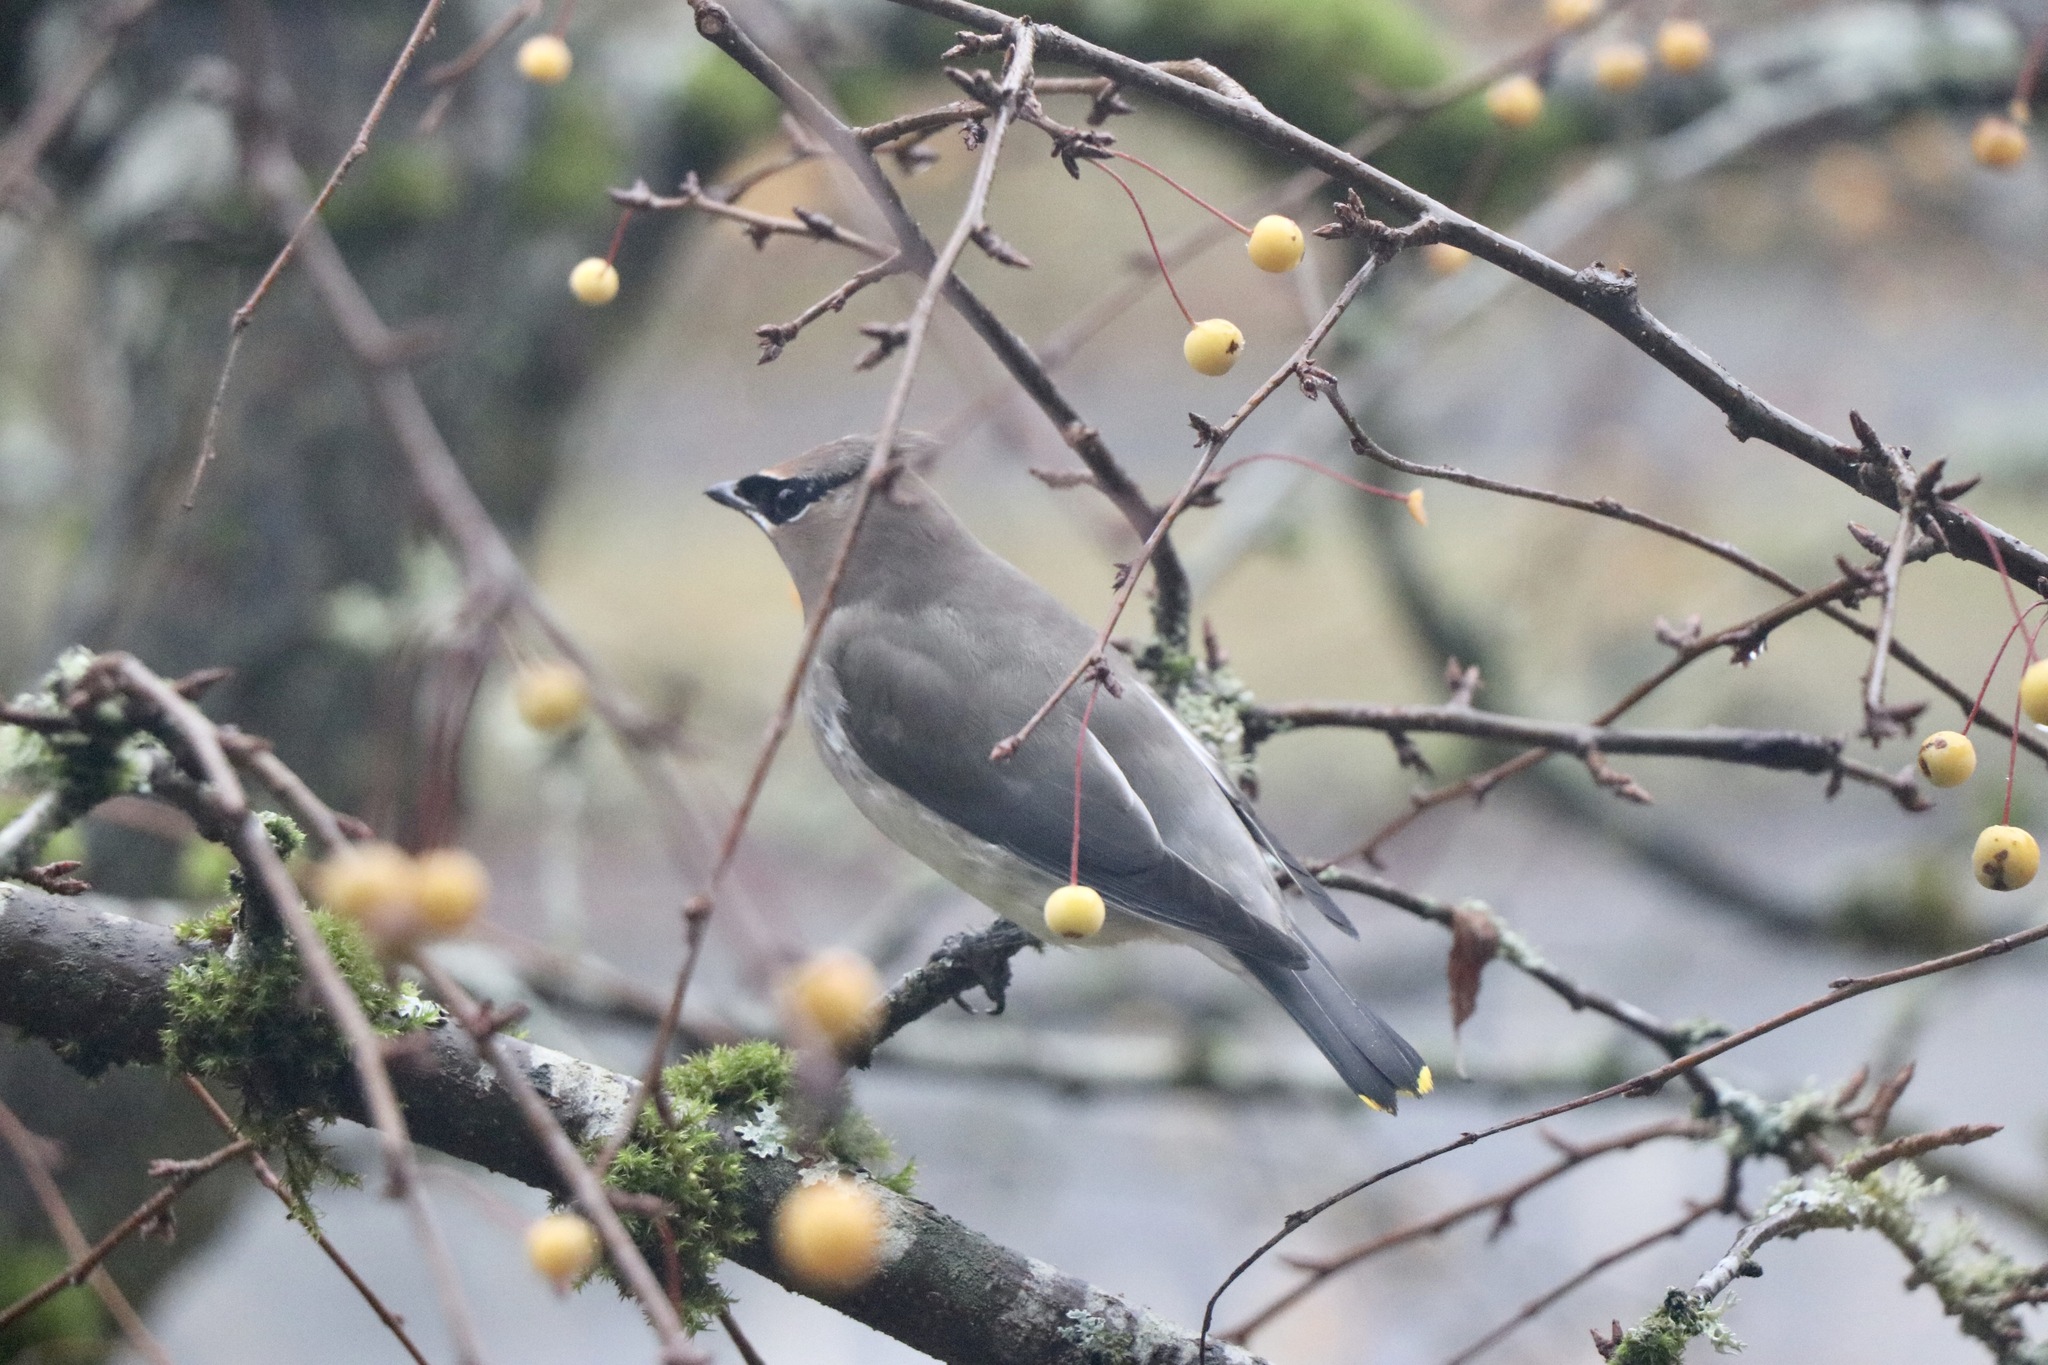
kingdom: Animalia
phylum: Chordata
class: Aves
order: Passeriformes
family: Bombycillidae
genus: Bombycilla
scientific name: Bombycilla cedrorum
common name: Cedar waxwing
